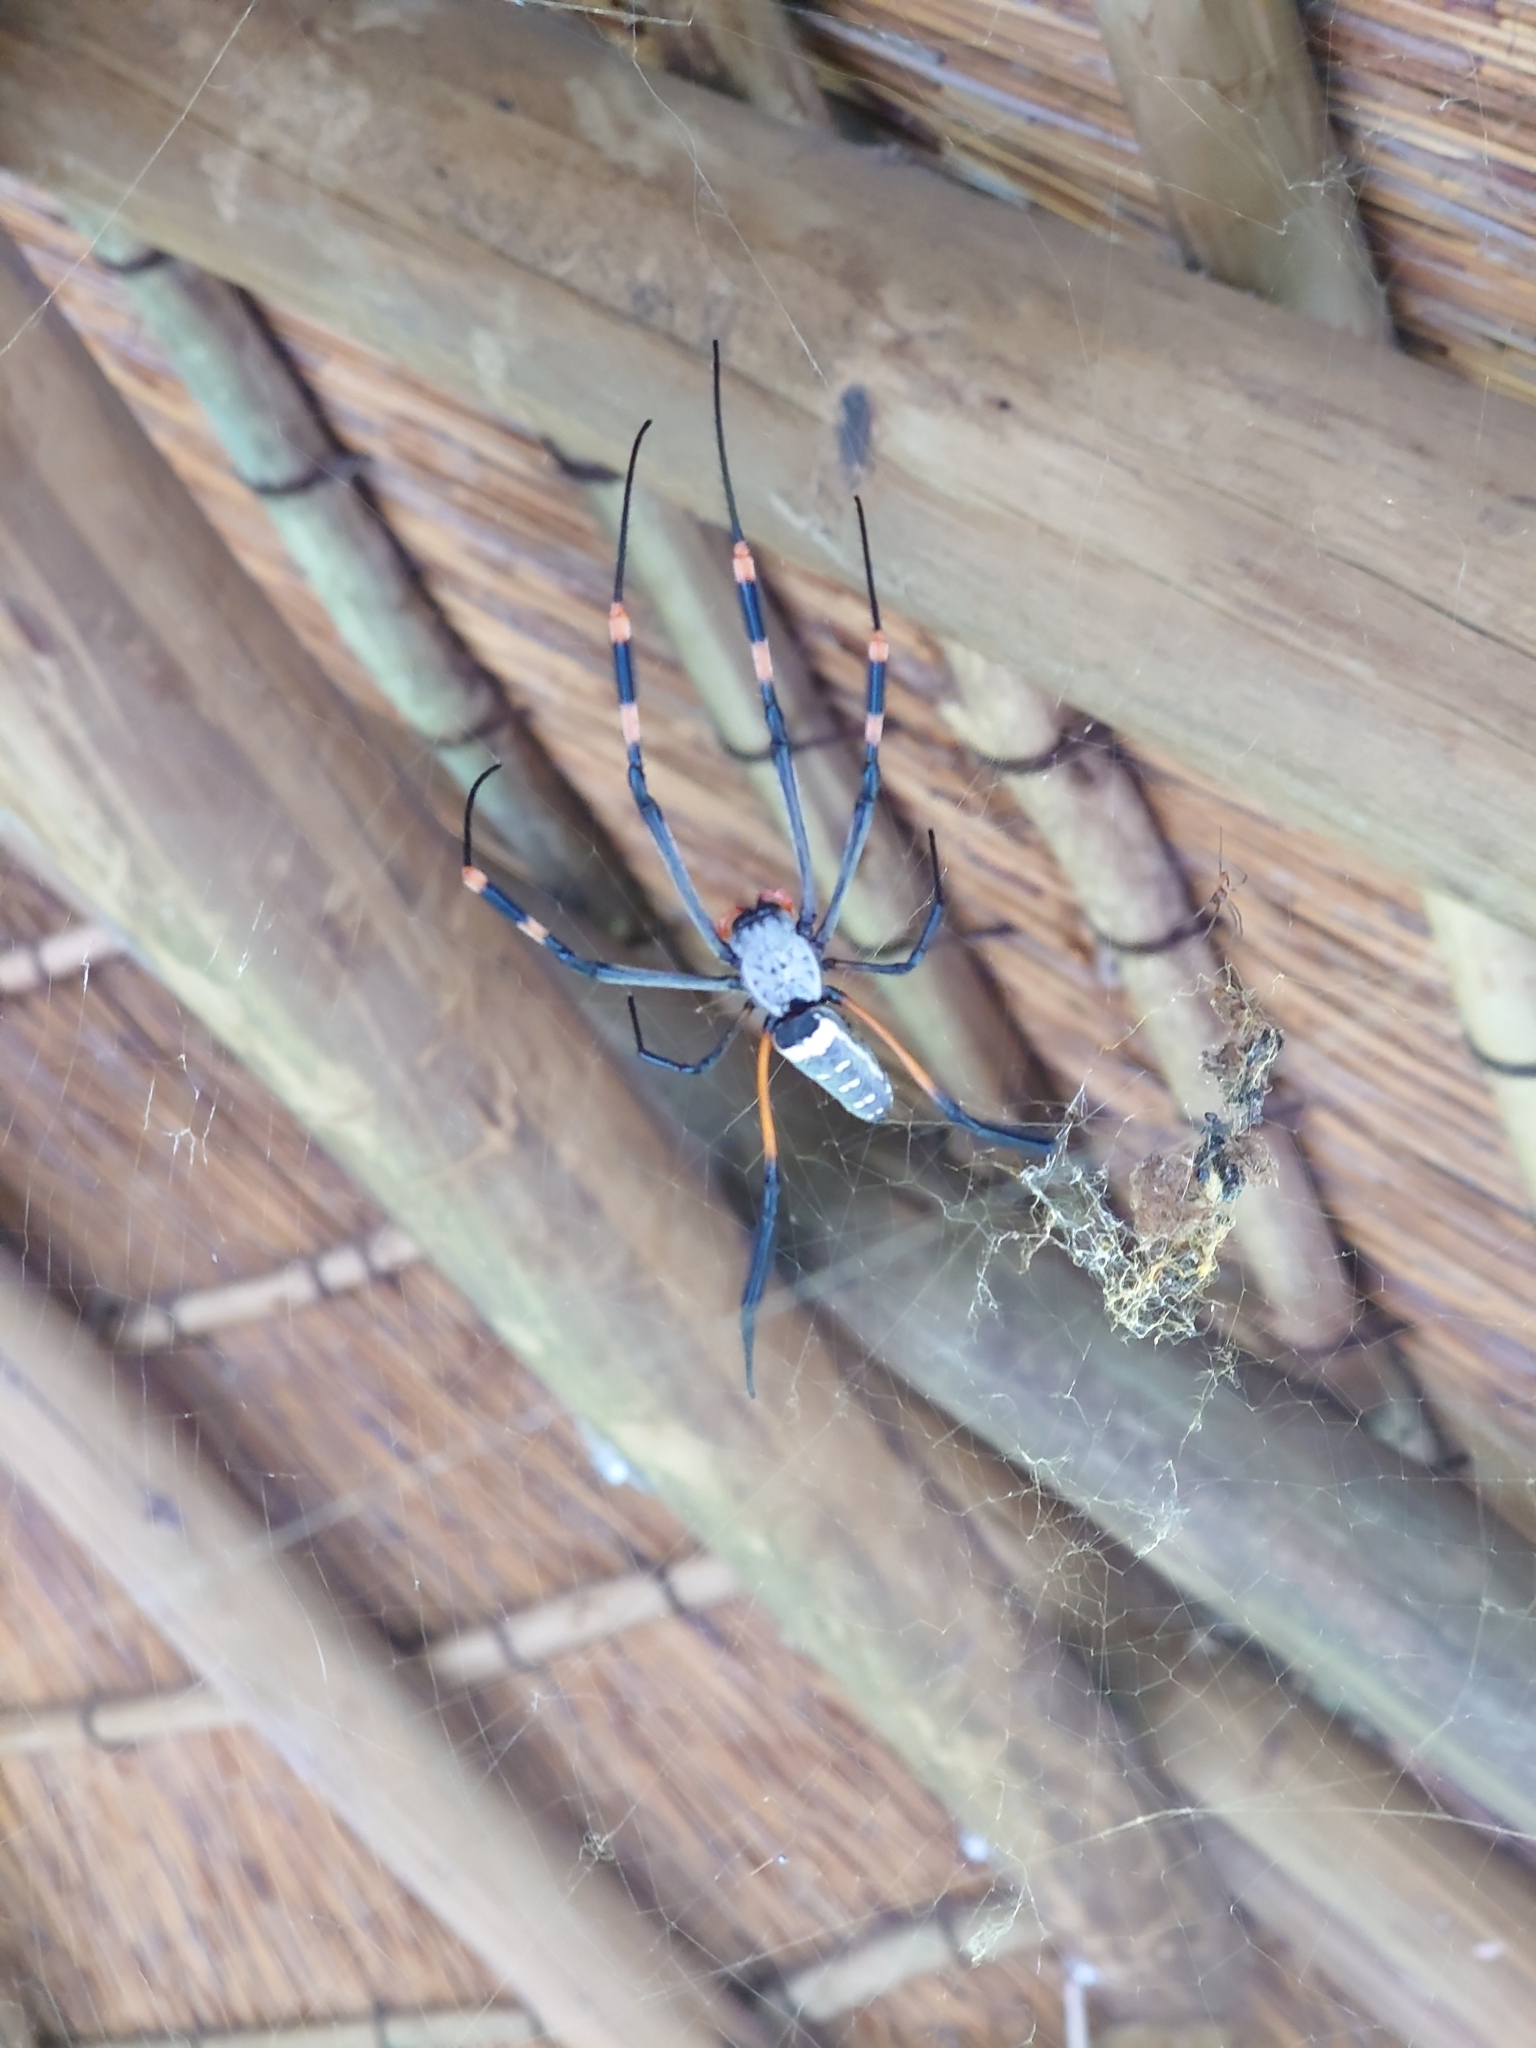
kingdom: Animalia
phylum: Arthropoda
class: Arachnida
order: Araneae
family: Araneidae
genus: Trichonephila
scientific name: Trichonephila senegalensis
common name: Banded golden orb weaver
